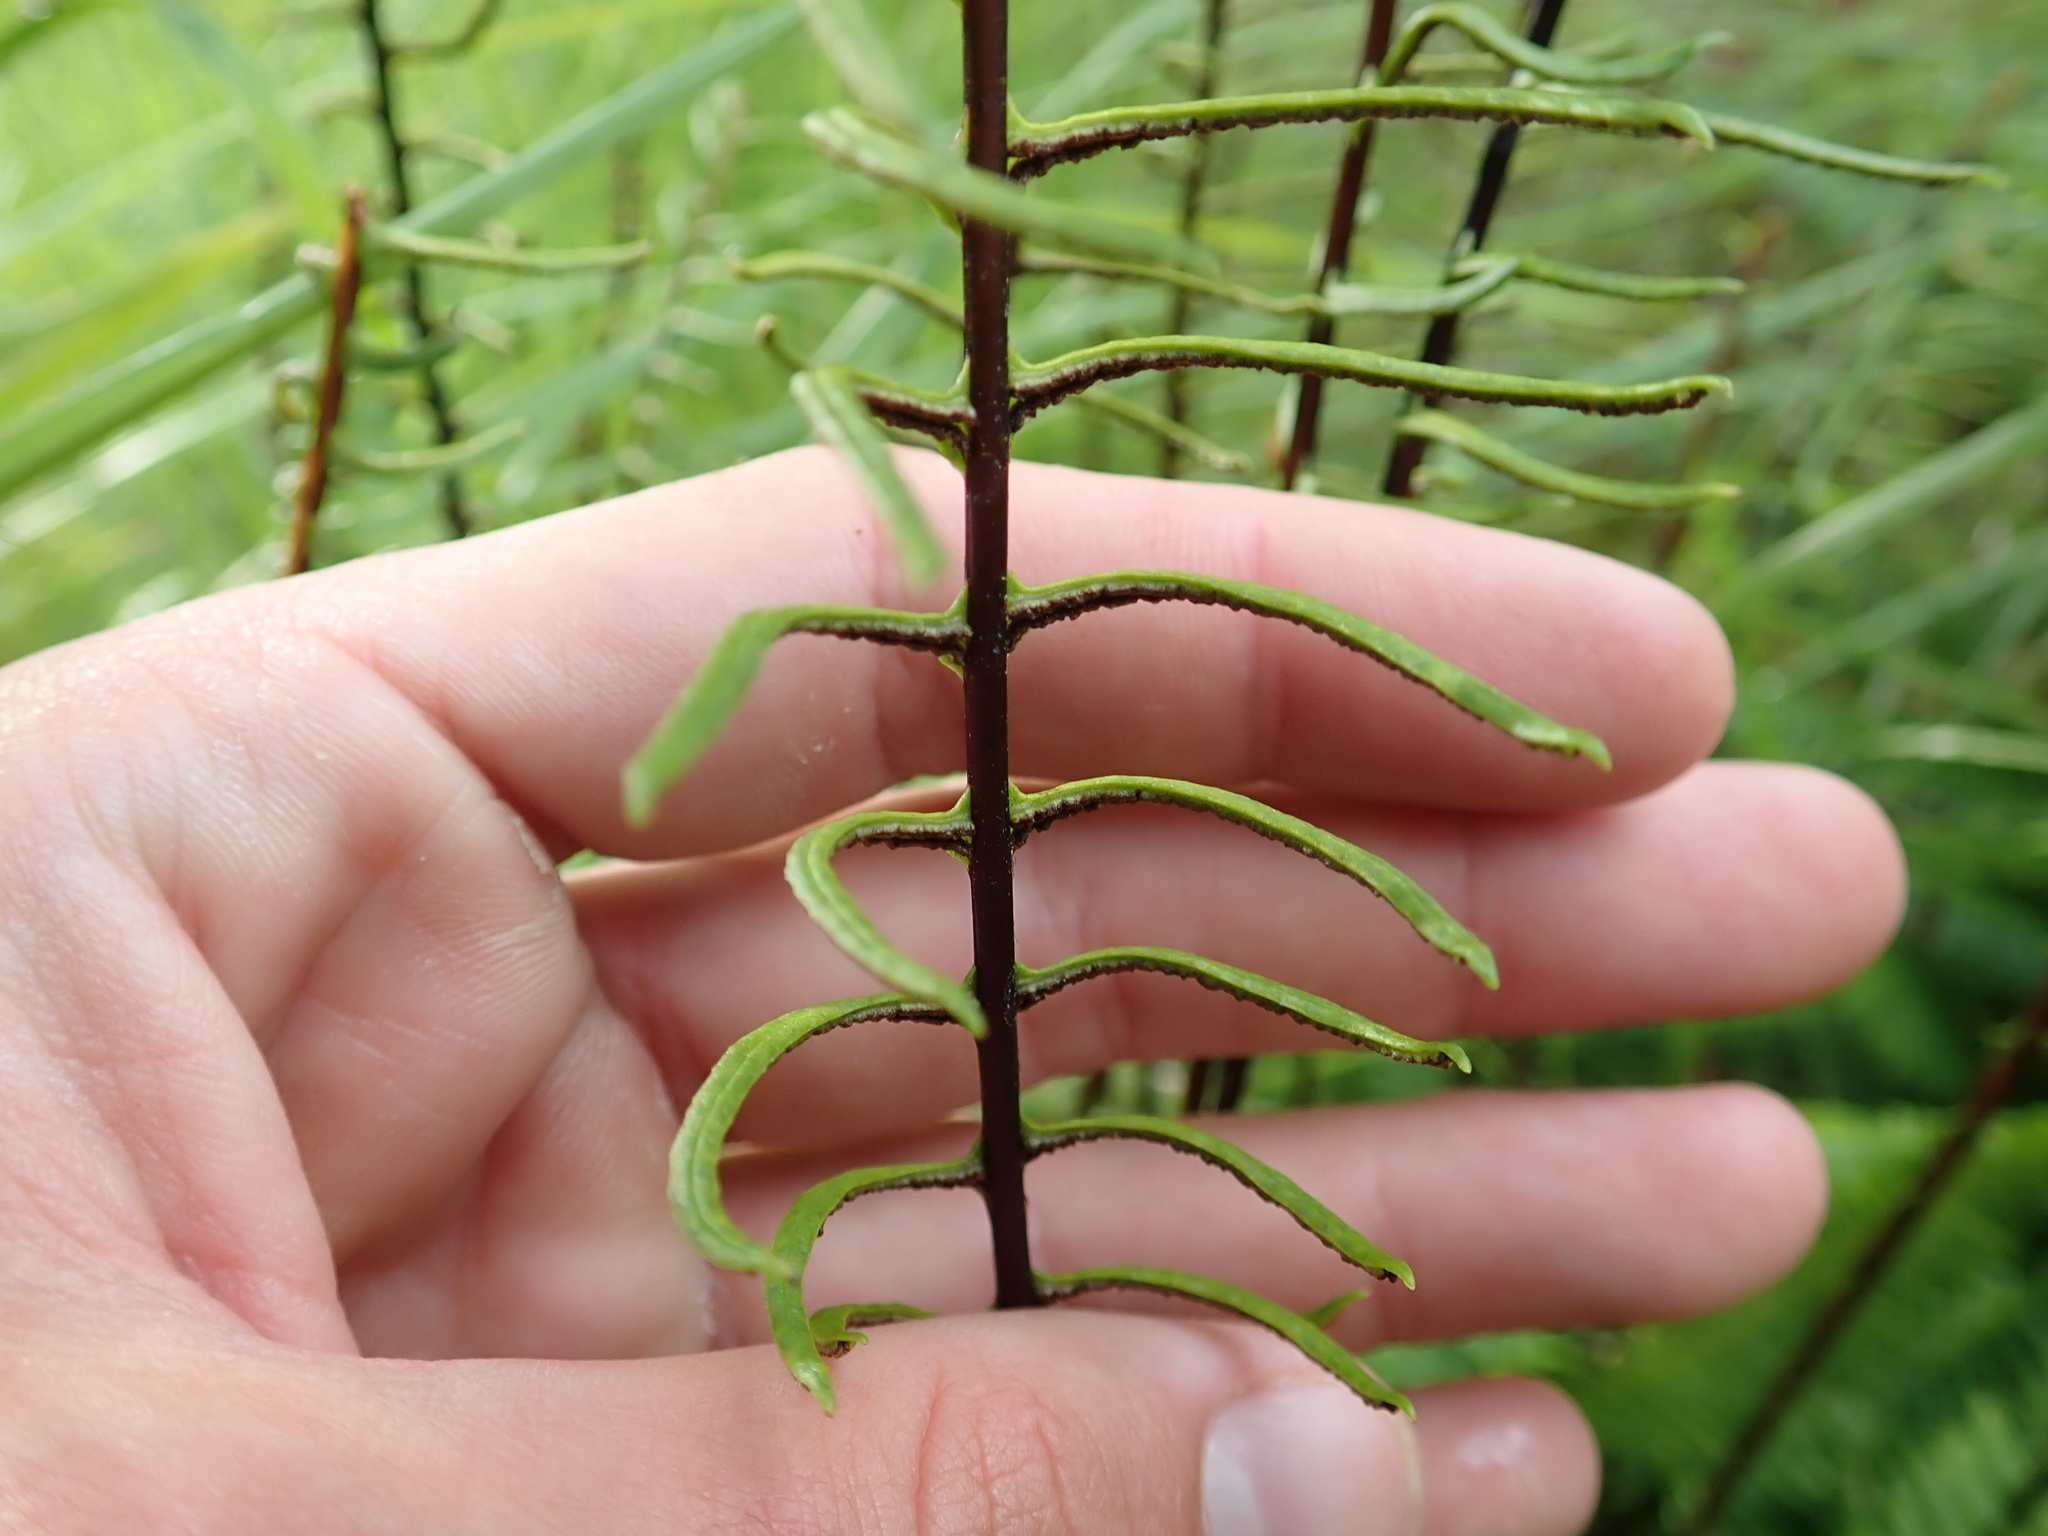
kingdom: Plantae
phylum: Tracheophyta
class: Polypodiopsida
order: Polypodiales
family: Blechnaceae
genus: Struthiopteris
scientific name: Struthiopteris spicant
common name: Deer fern
